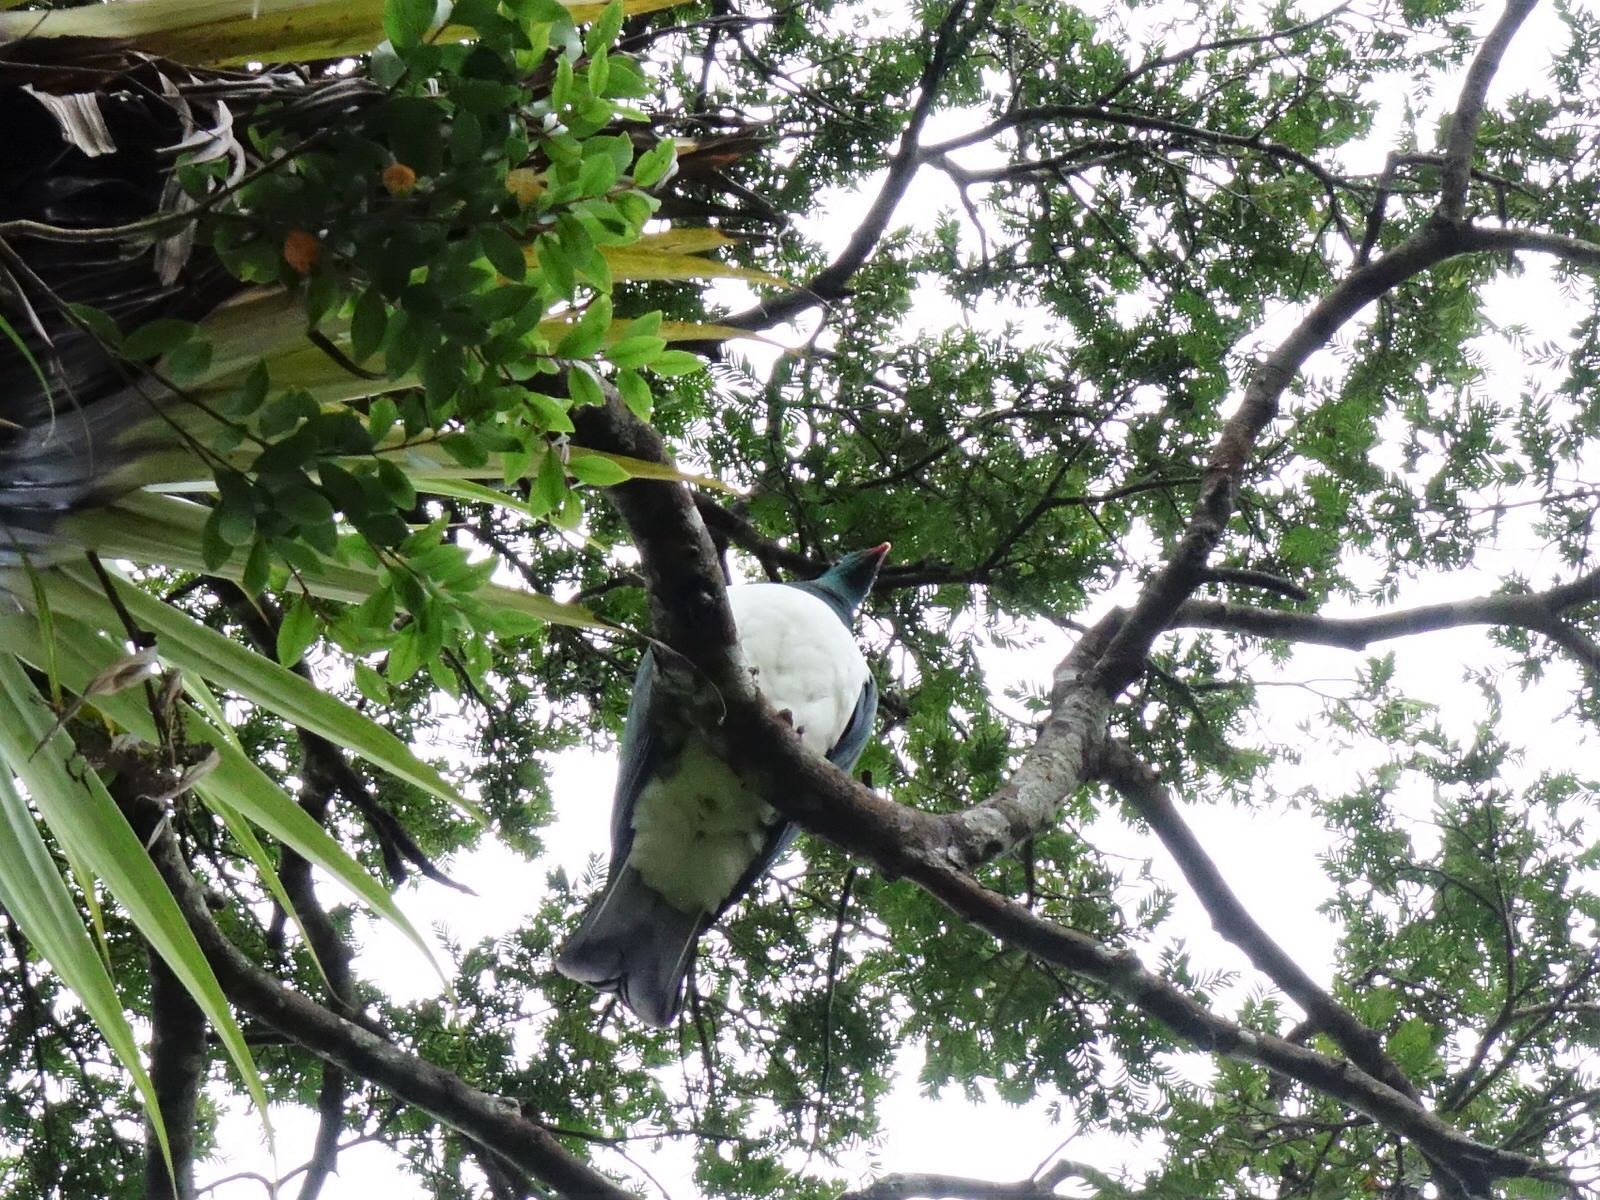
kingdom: Animalia
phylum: Chordata
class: Aves
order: Columbiformes
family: Columbidae
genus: Hemiphaga
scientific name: Hemiphaga novaeseelandiae
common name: New zealand pigeon
